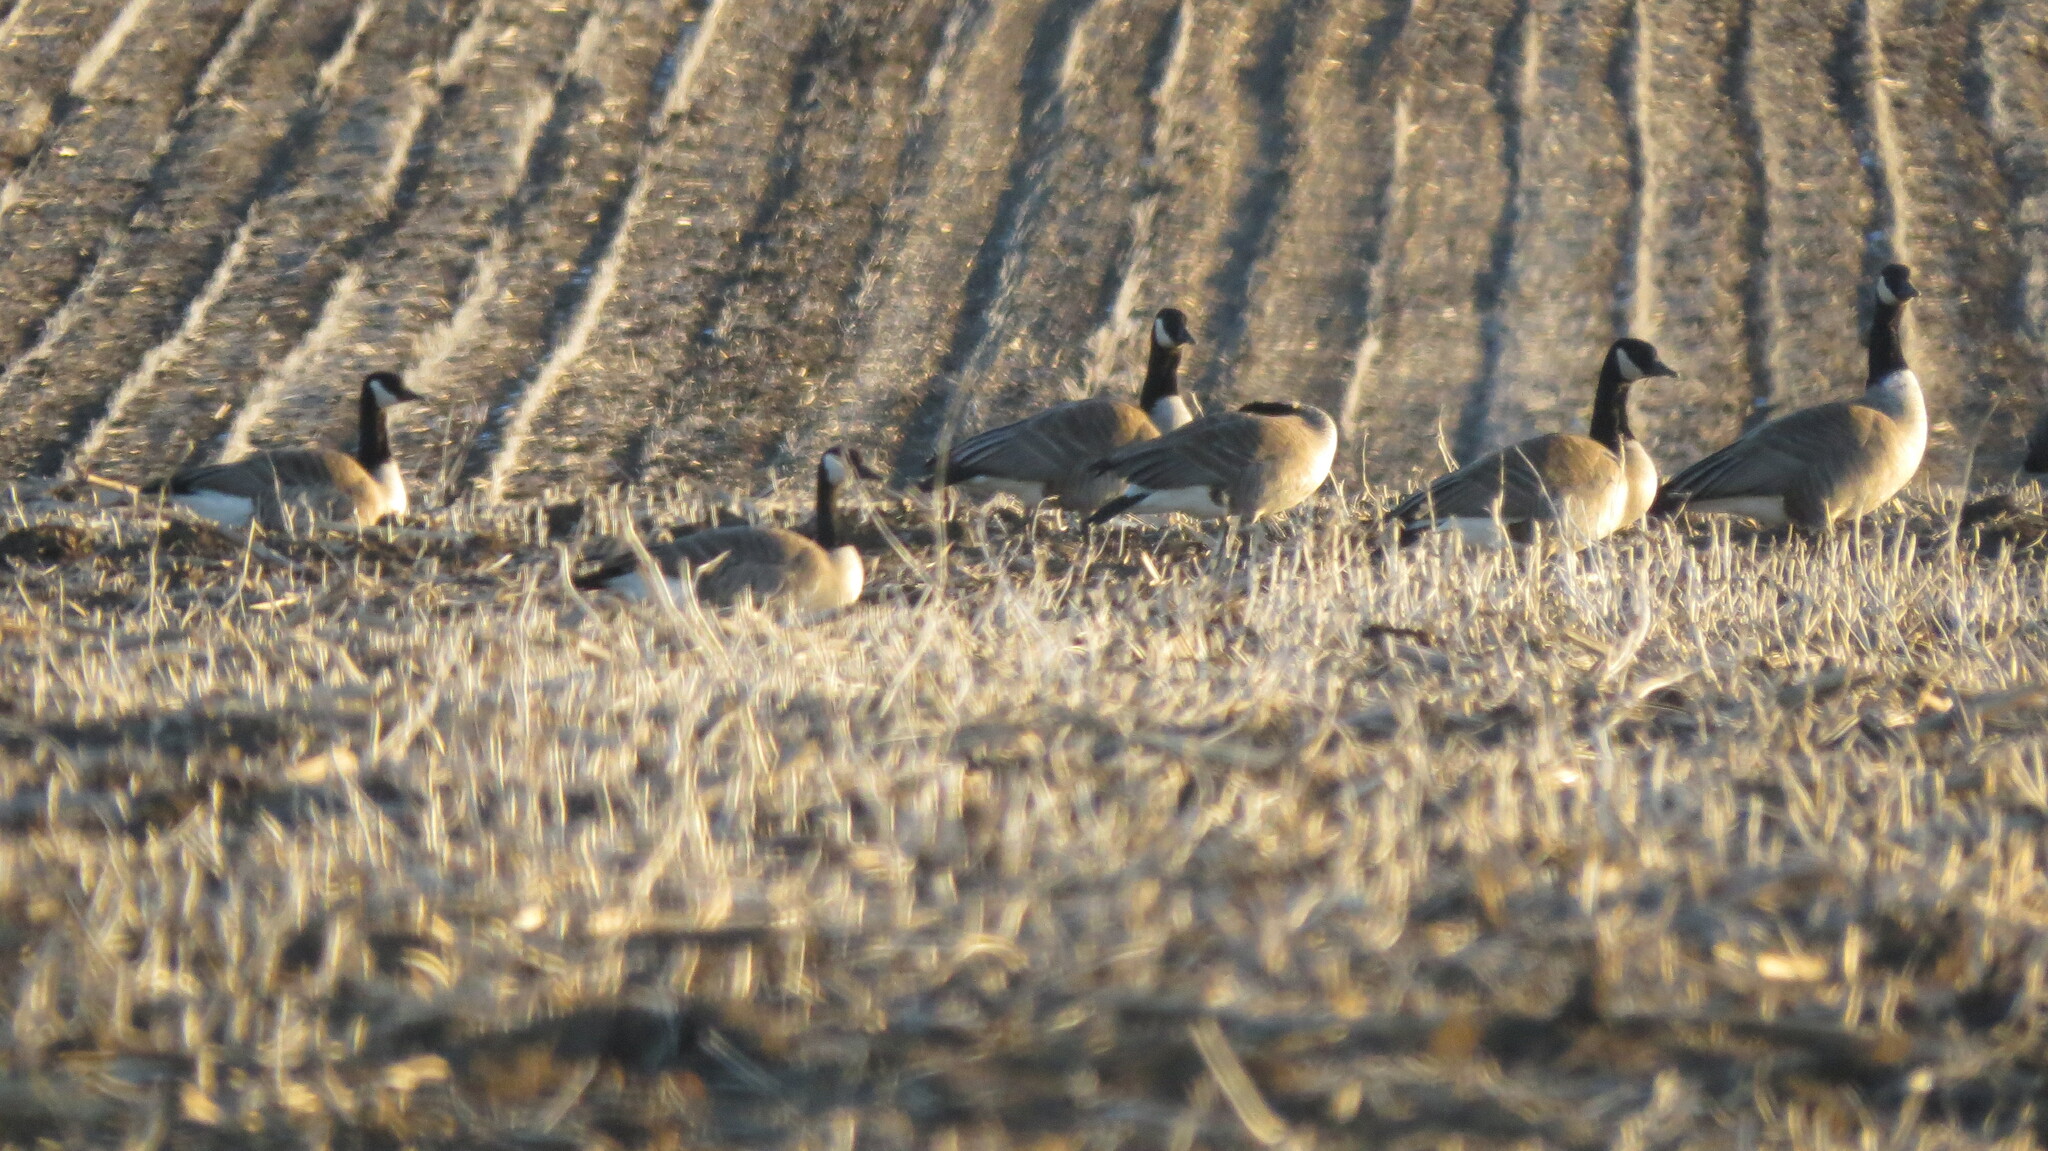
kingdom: Animalia
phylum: Chordata
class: Aves
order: Anseriformes
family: Anatidae
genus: Branta
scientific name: Branta canadensis
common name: Canada goose
